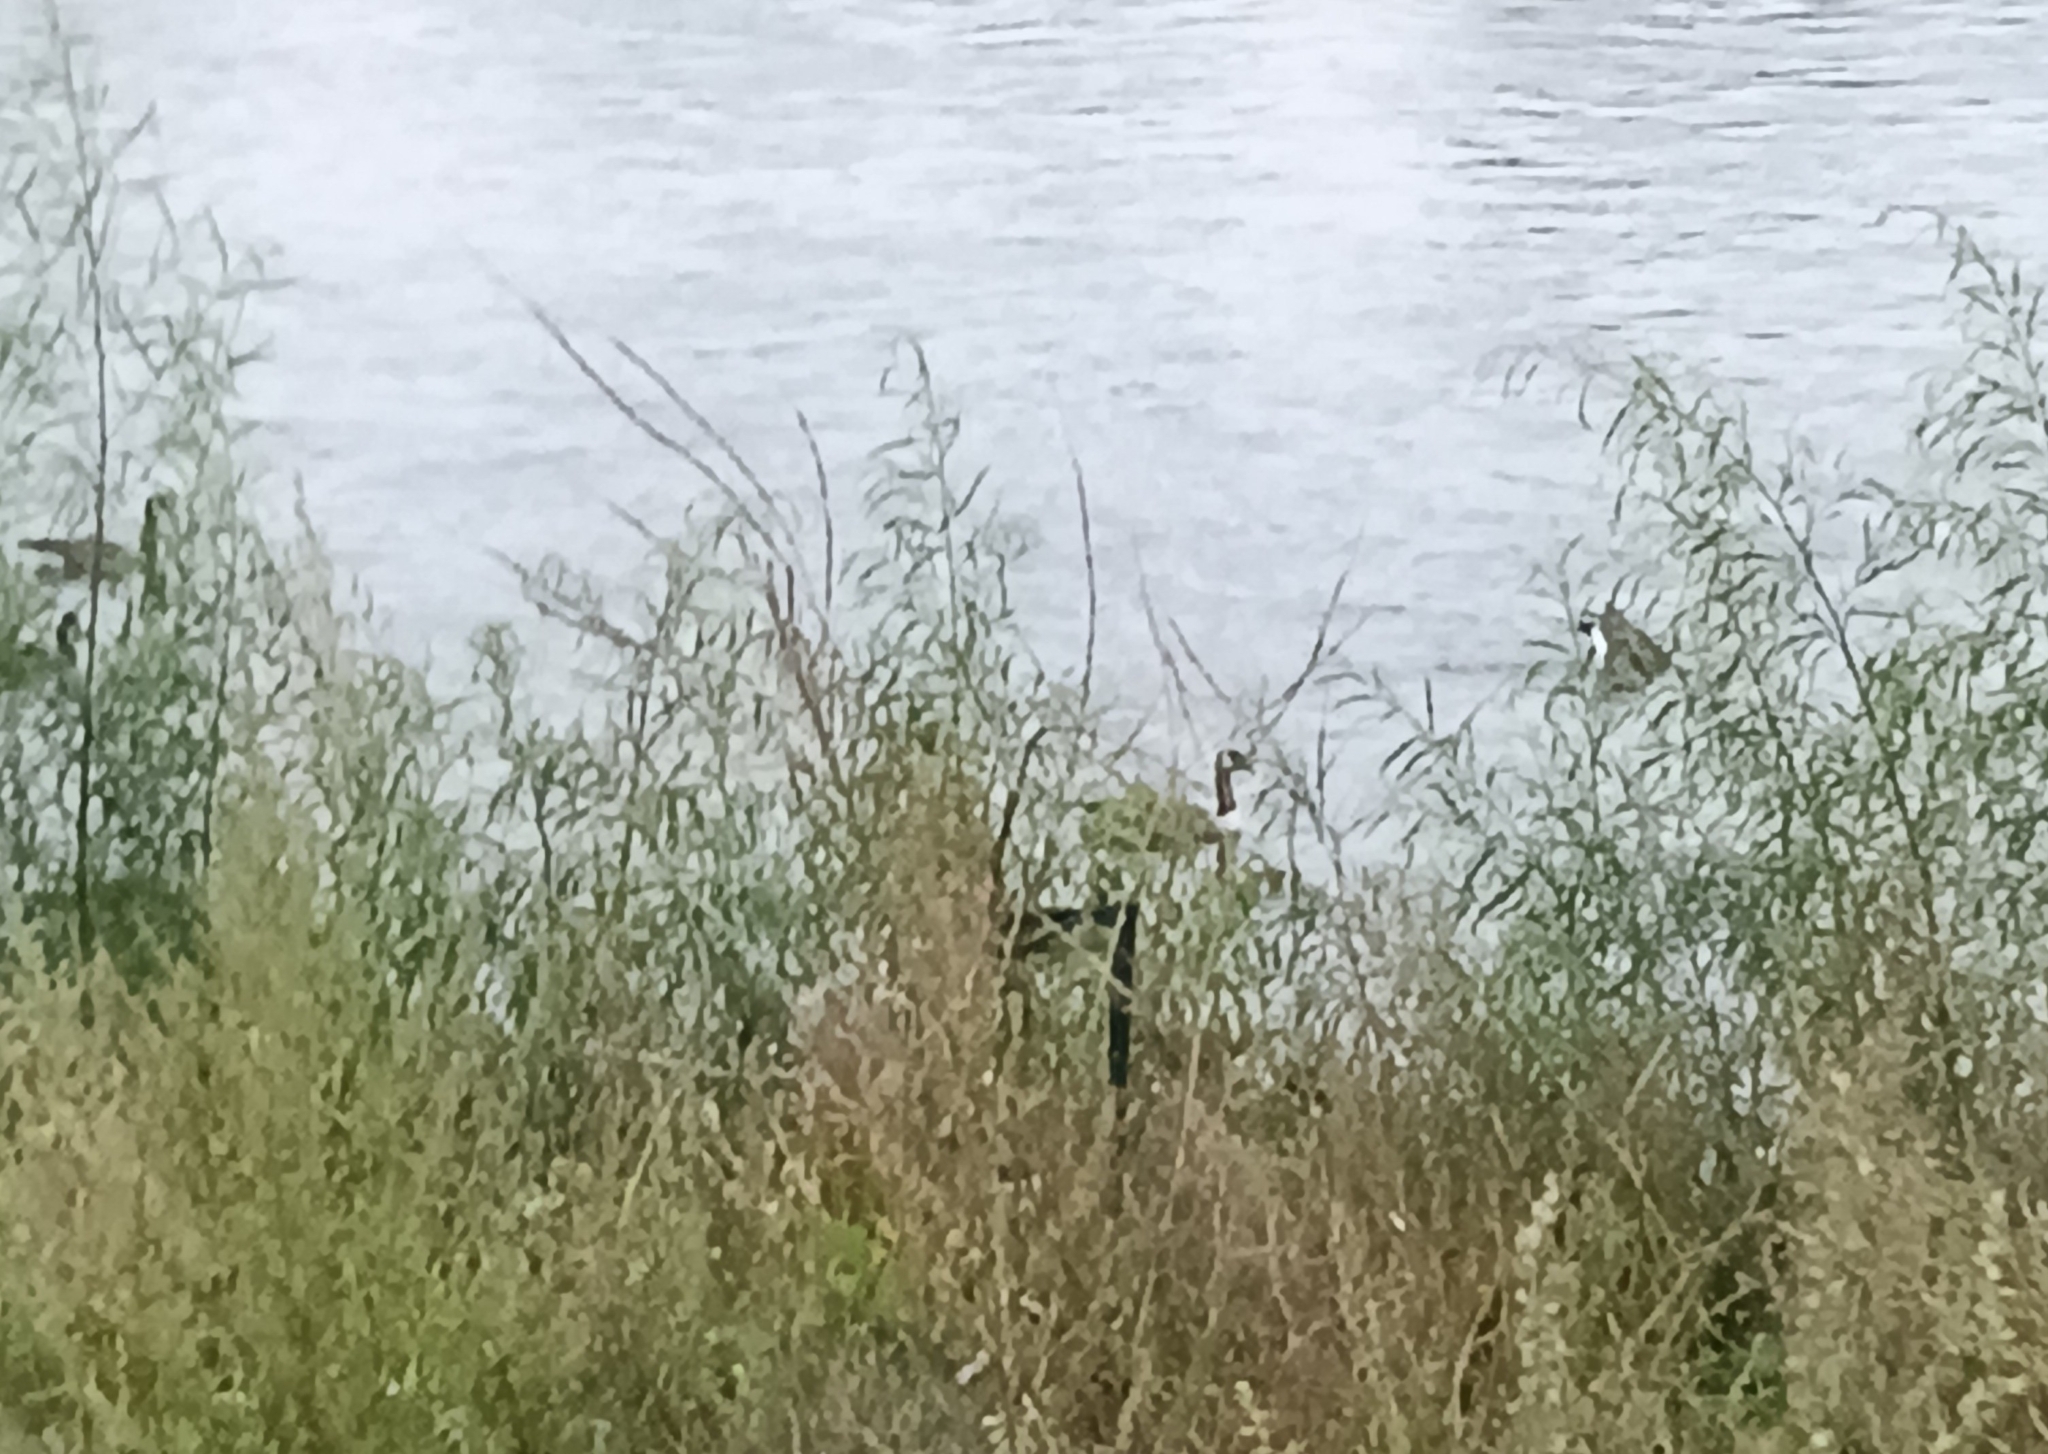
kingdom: Animalia
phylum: Chordata
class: Aves
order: Anseriformes
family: Anatidae
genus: Branta
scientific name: Branta canadensis
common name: Canada goose
